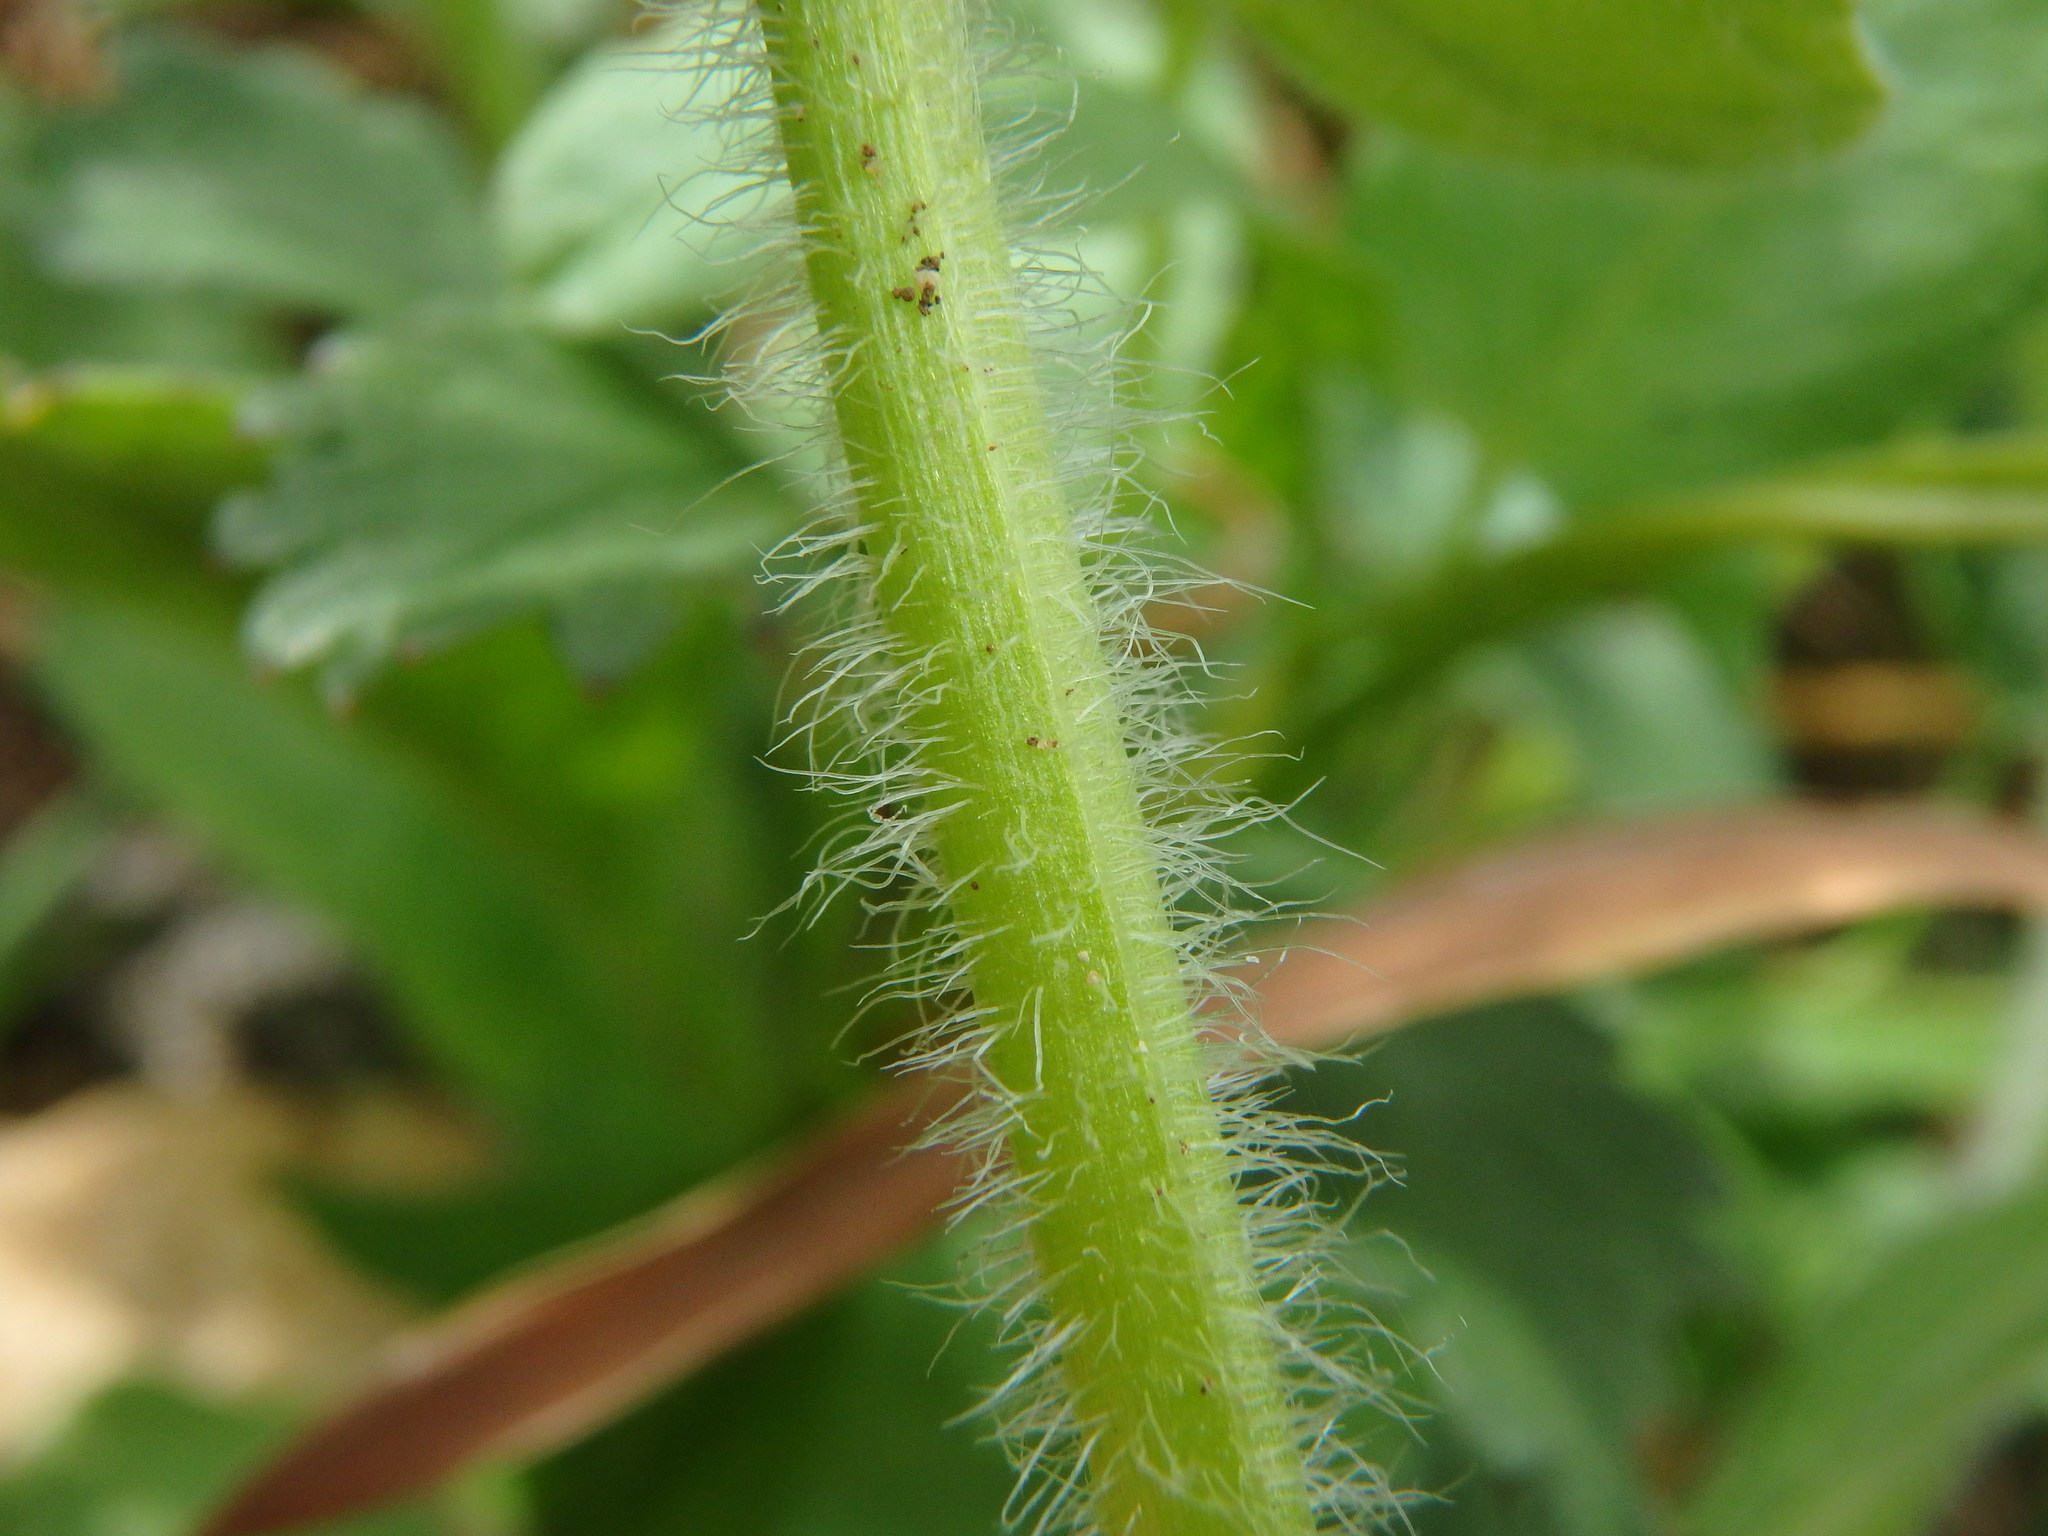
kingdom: Plantae
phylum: Tracheophyta
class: Magnoliopsida
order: Lamiales
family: Lamiaceae
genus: Ajuga
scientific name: Ajuga genevensis
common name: Blue bugle
